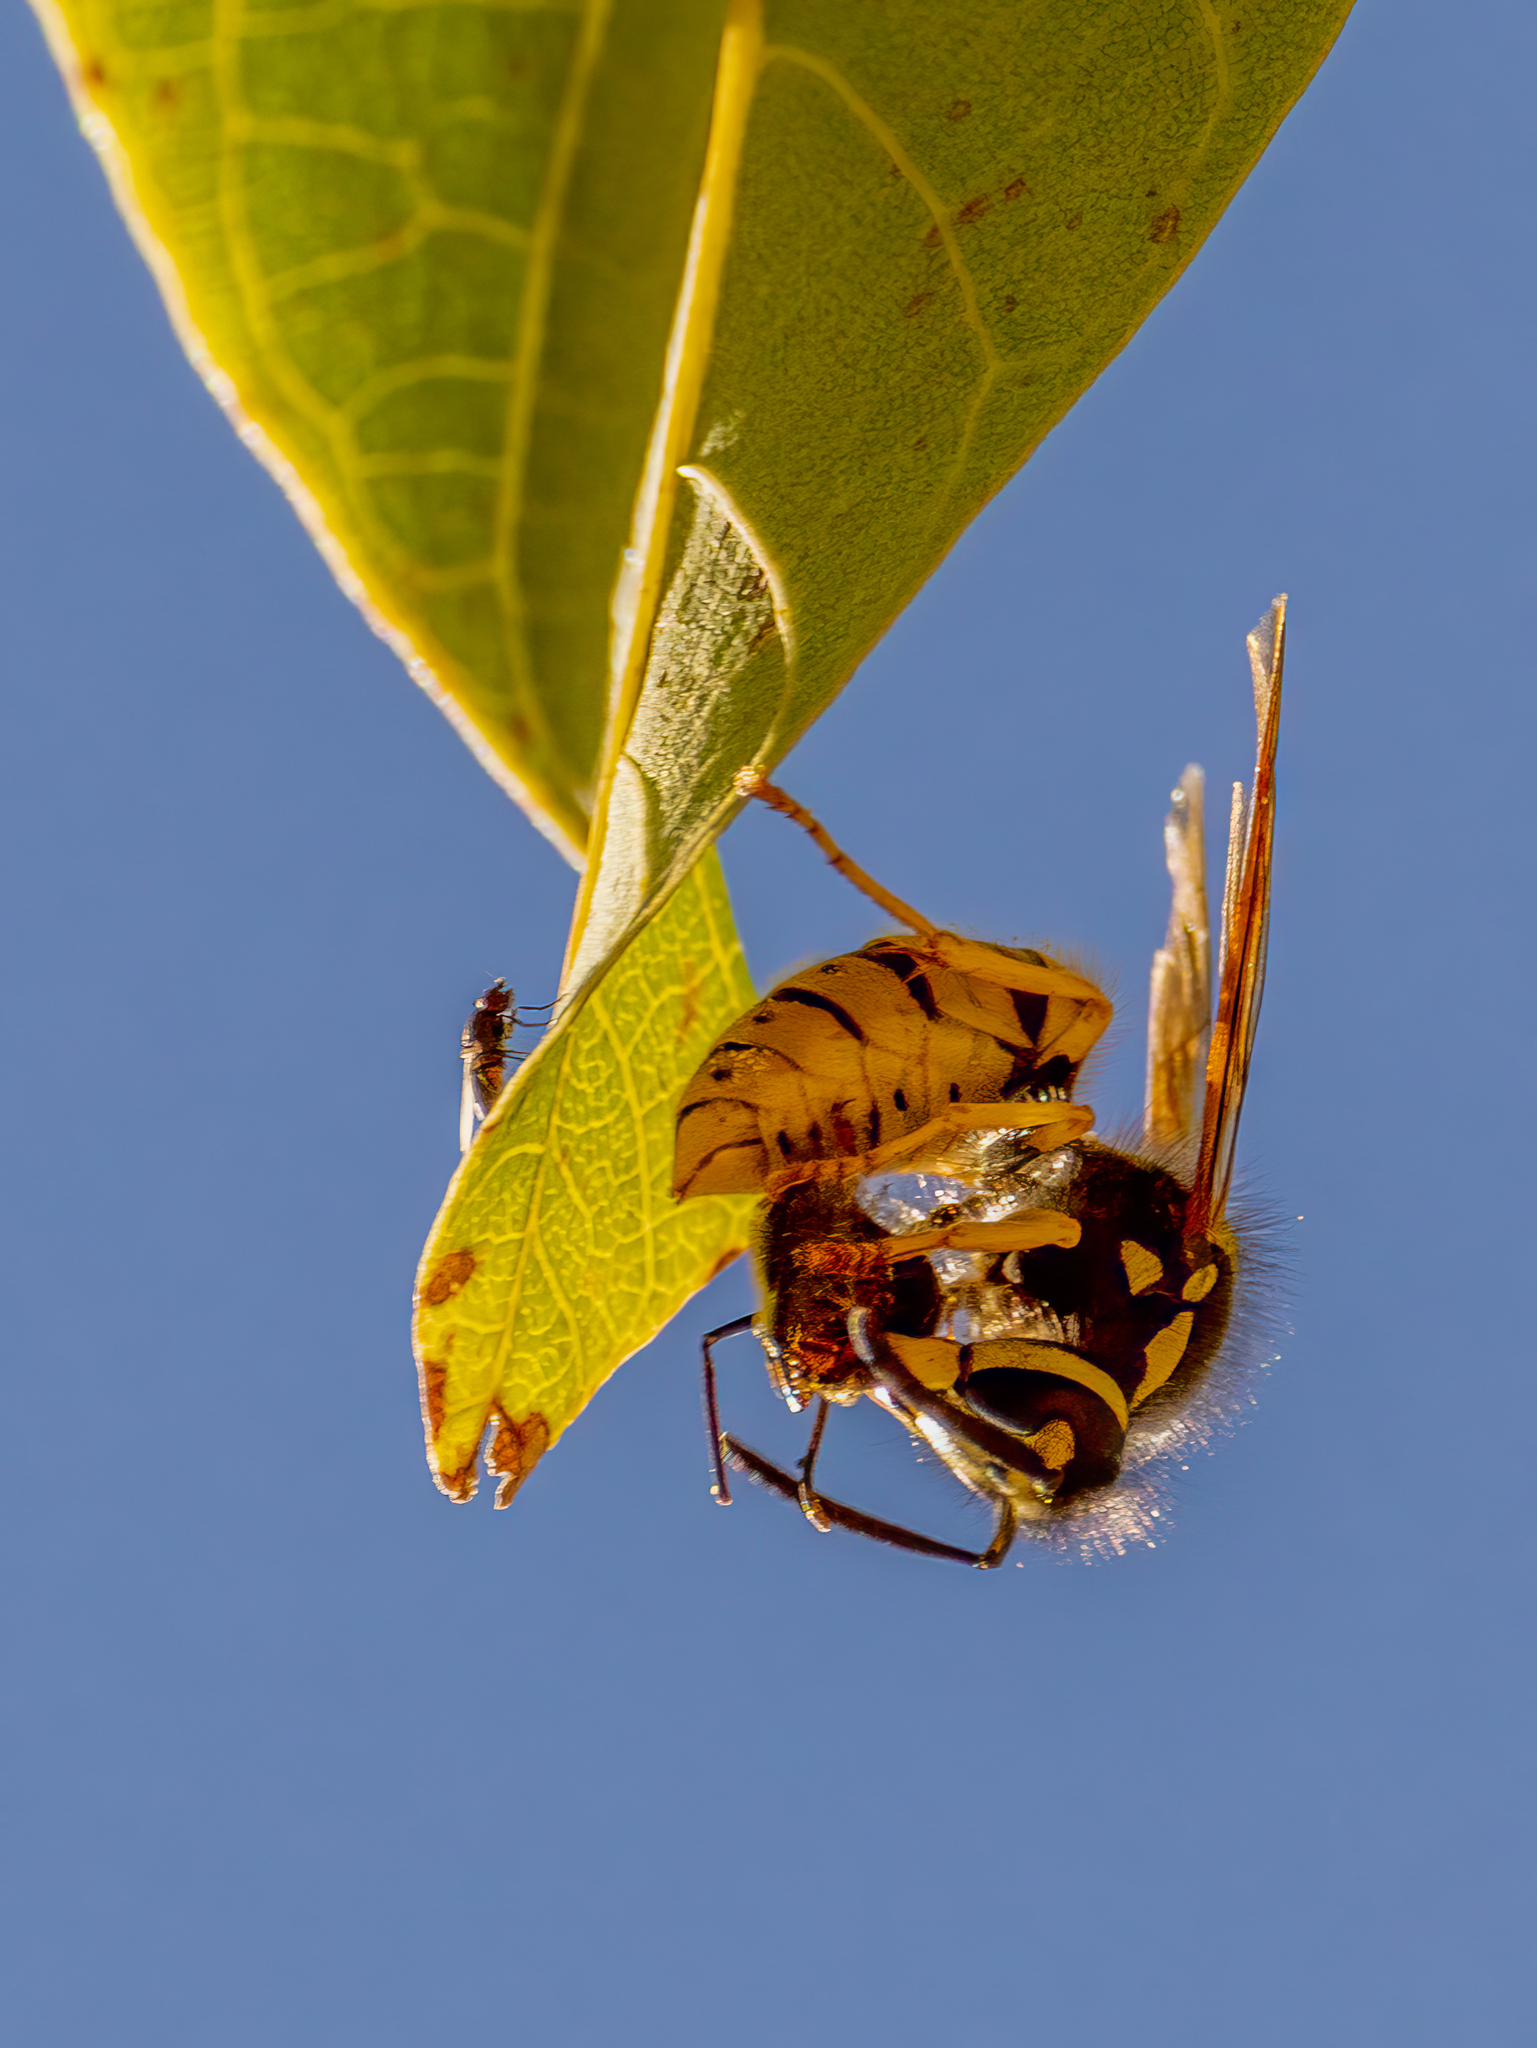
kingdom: Animalia
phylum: Arthropoda
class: Insecta
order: Hymenoptera
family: Vespidae
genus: Vespula
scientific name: Vespula germanica
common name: German wasp
